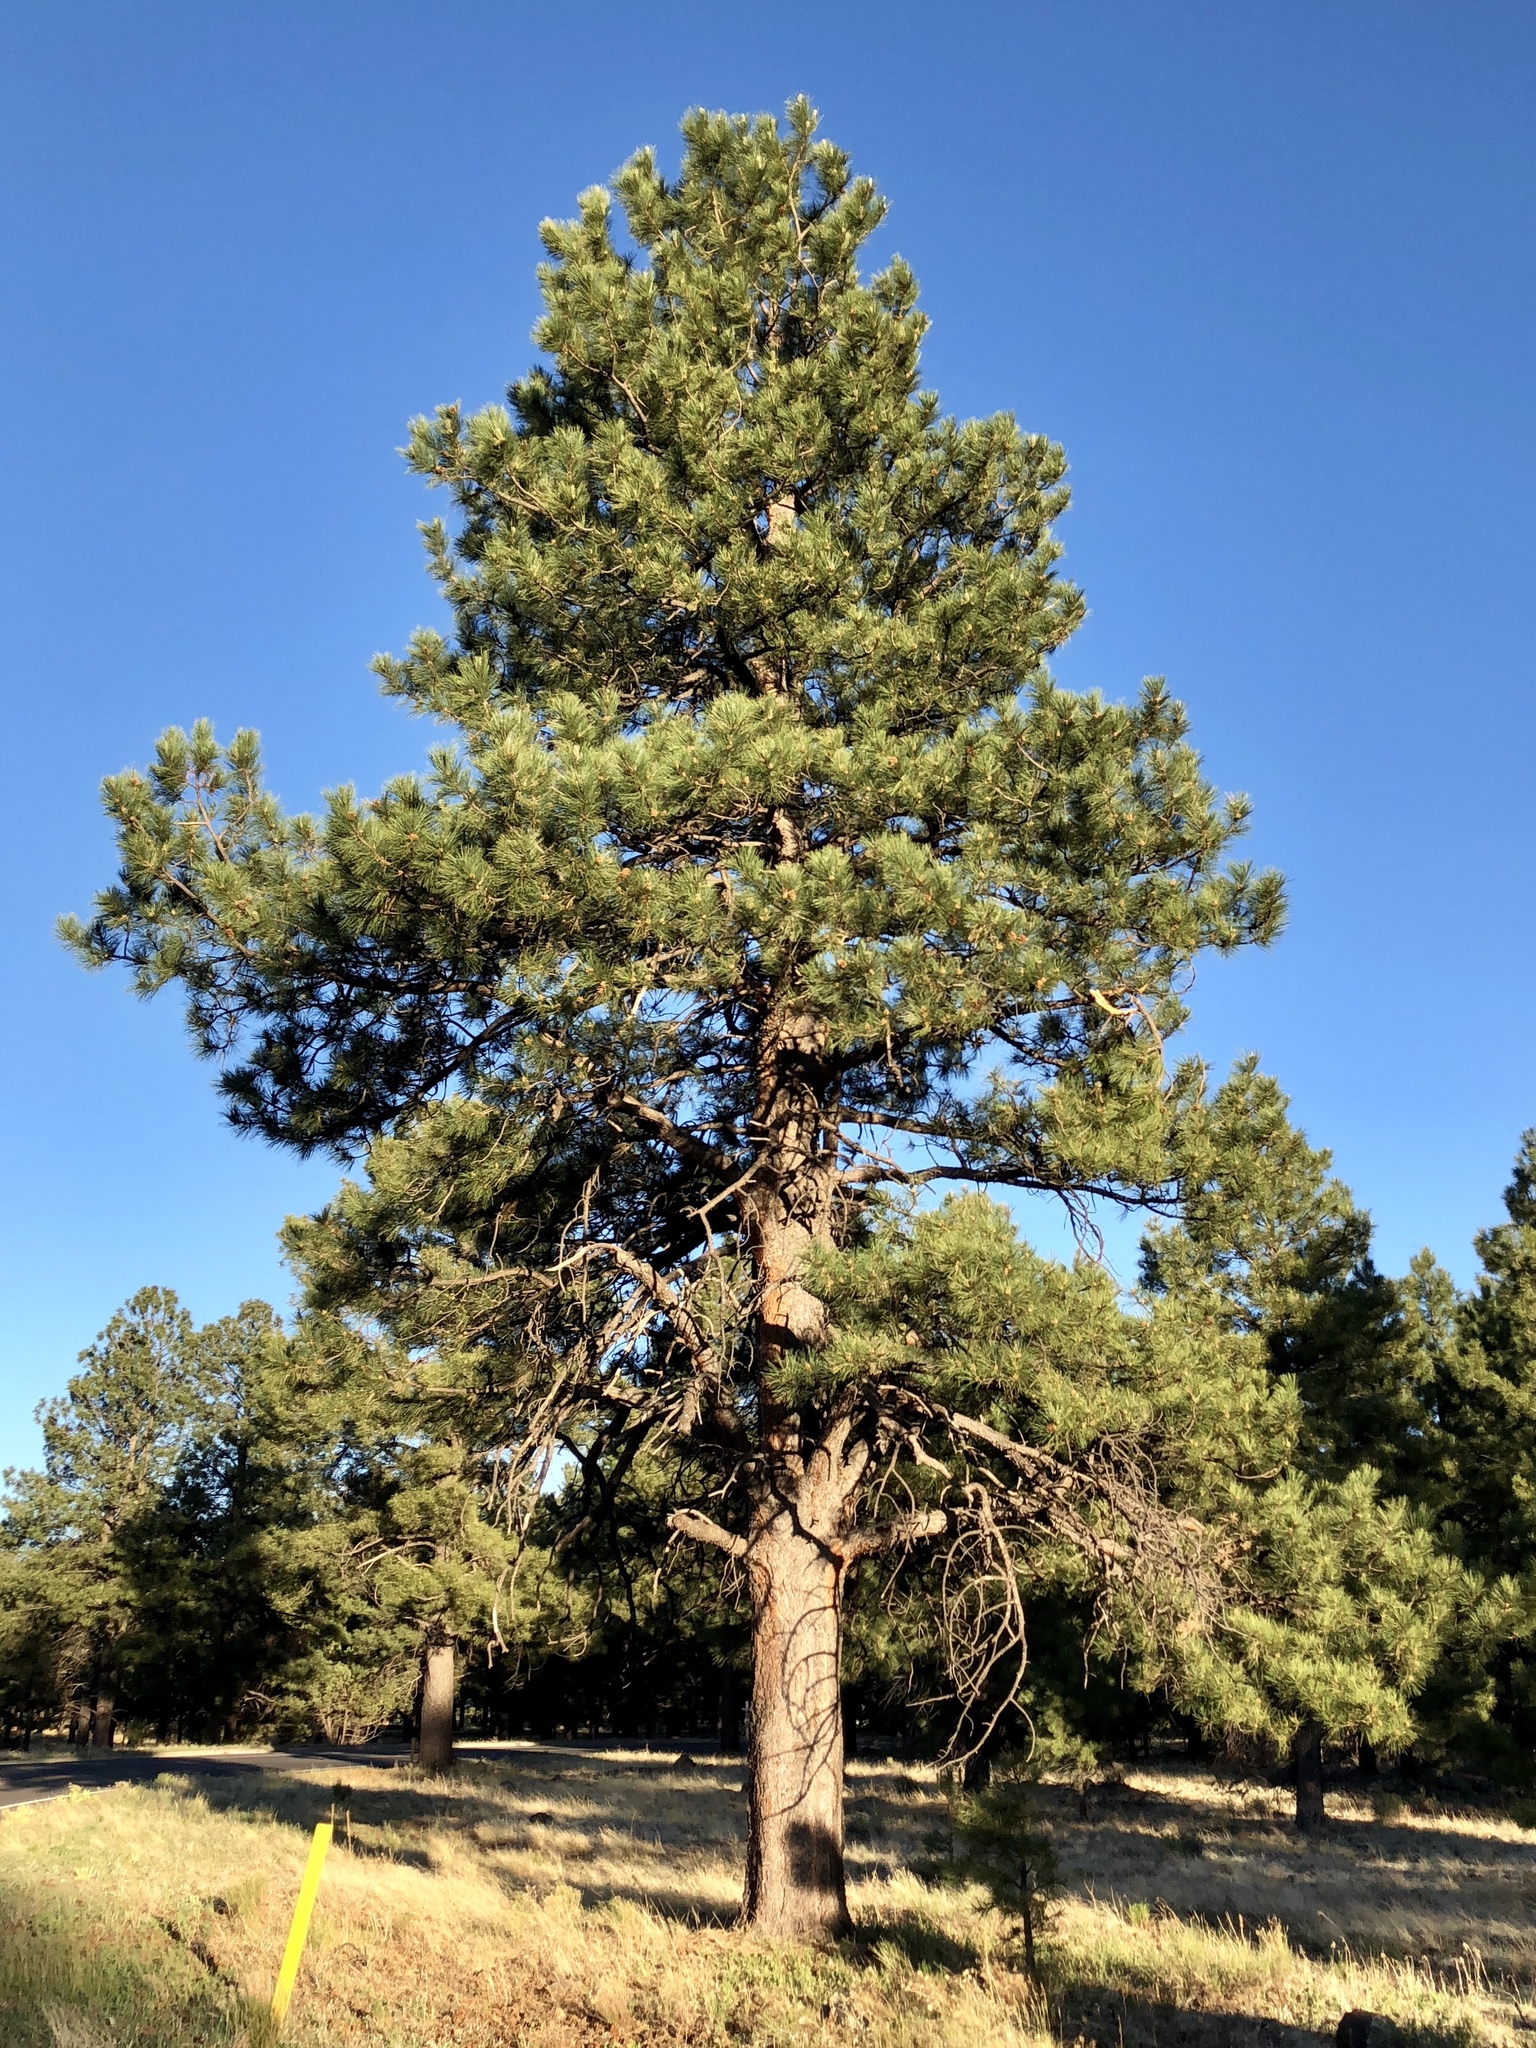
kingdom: Plantae
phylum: Tracheophyta
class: Pinopsida
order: Pinales
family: Pinaceae
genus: Pinus
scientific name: Pinus ponderosa
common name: Western yellow-pine
